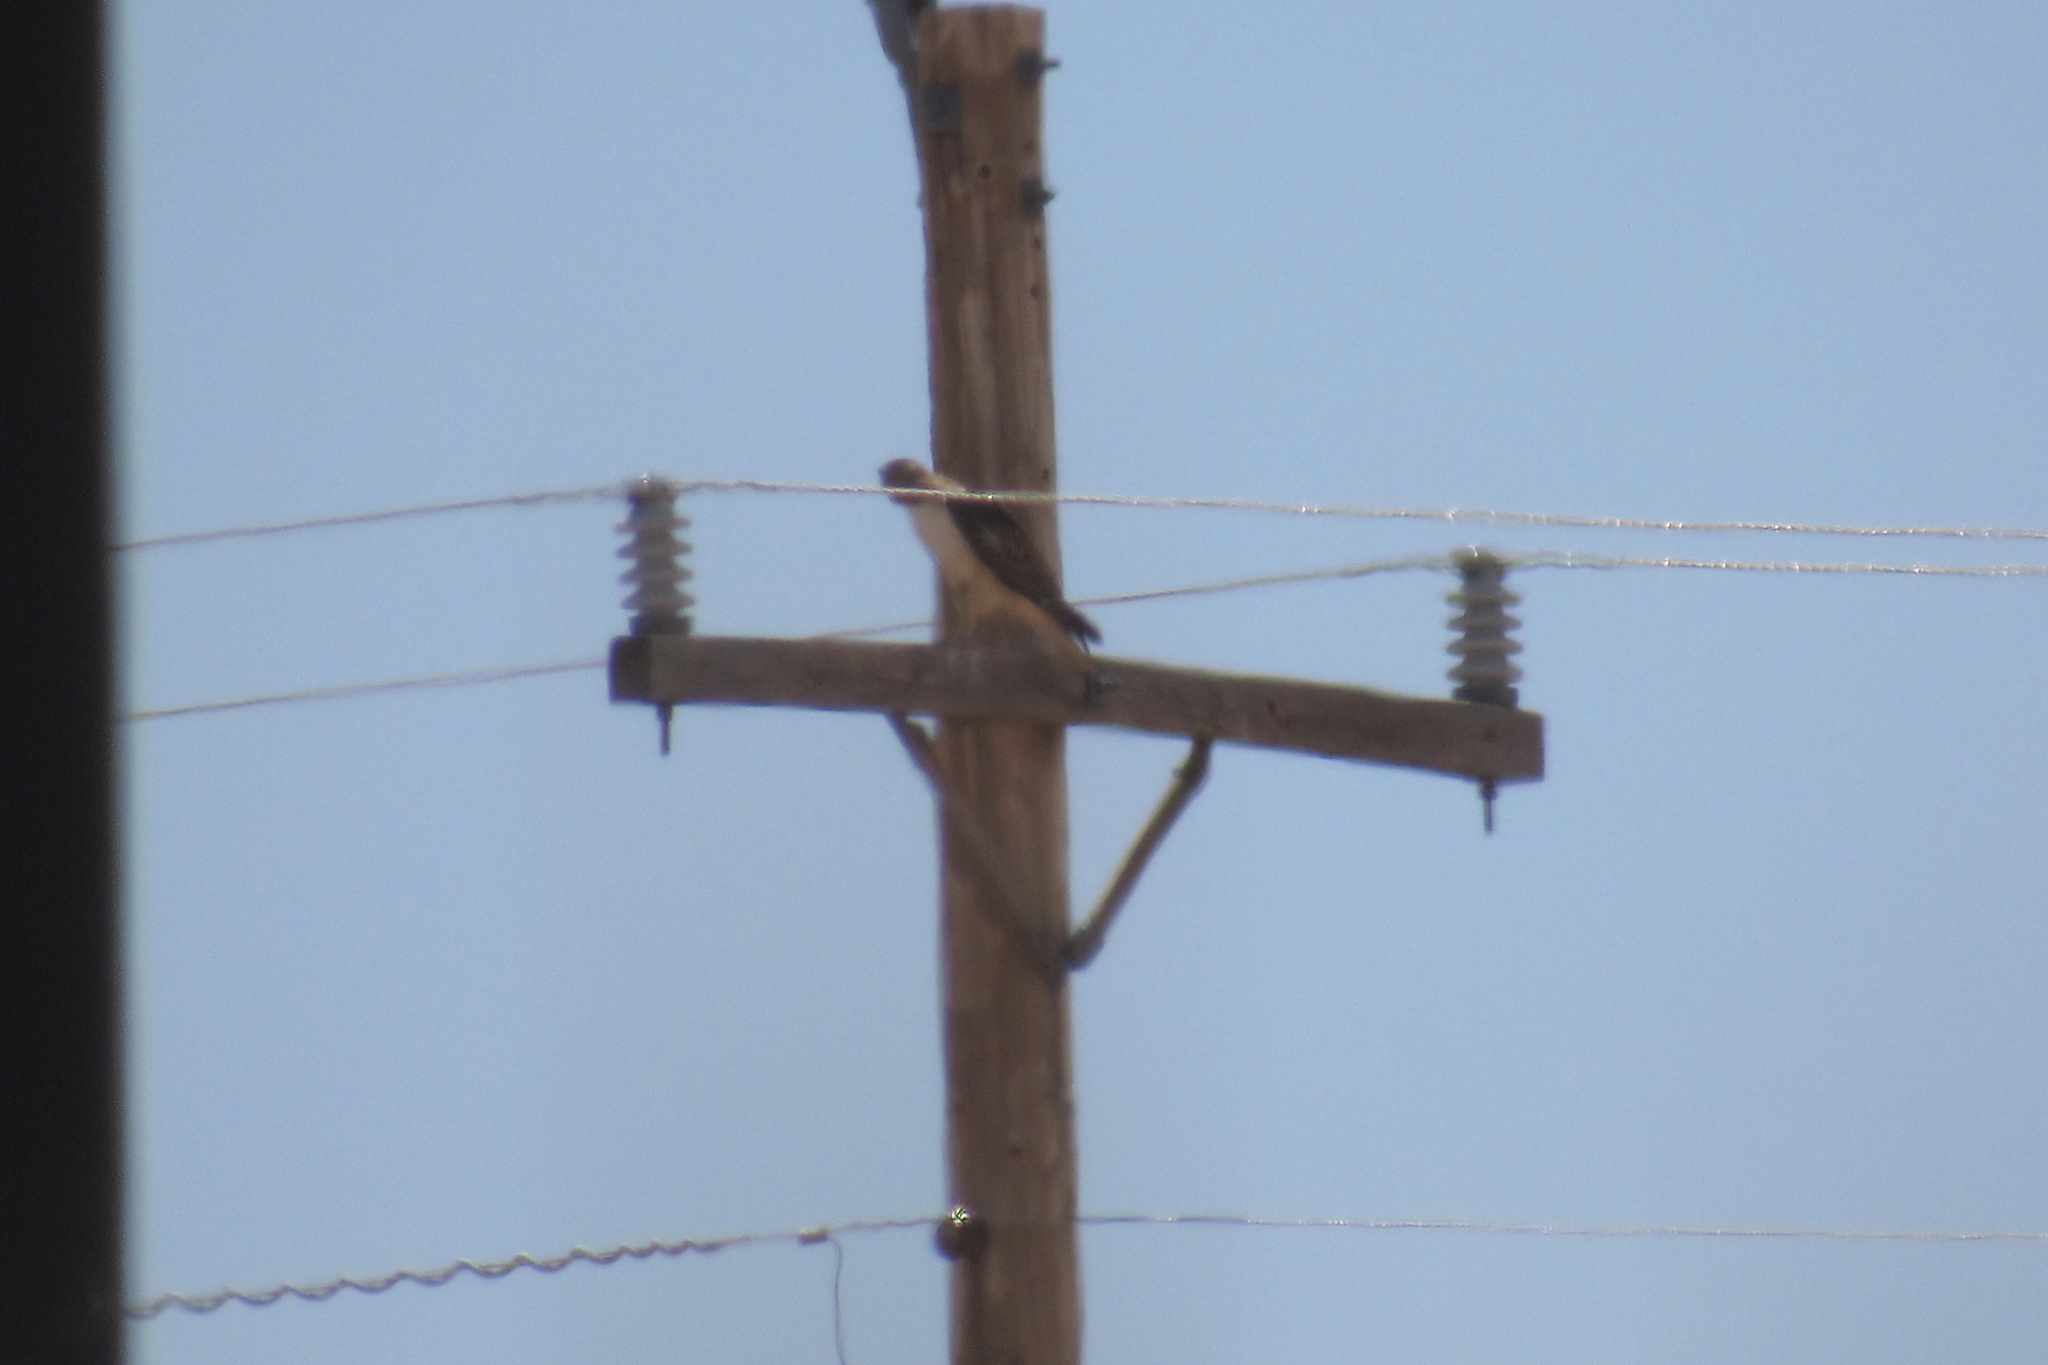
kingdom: Animalia
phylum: Chordata
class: Aves
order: Accipitriformes
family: Accipitridae
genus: Buteo
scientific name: Buteo jamaicensis
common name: Red-tailed hawk
